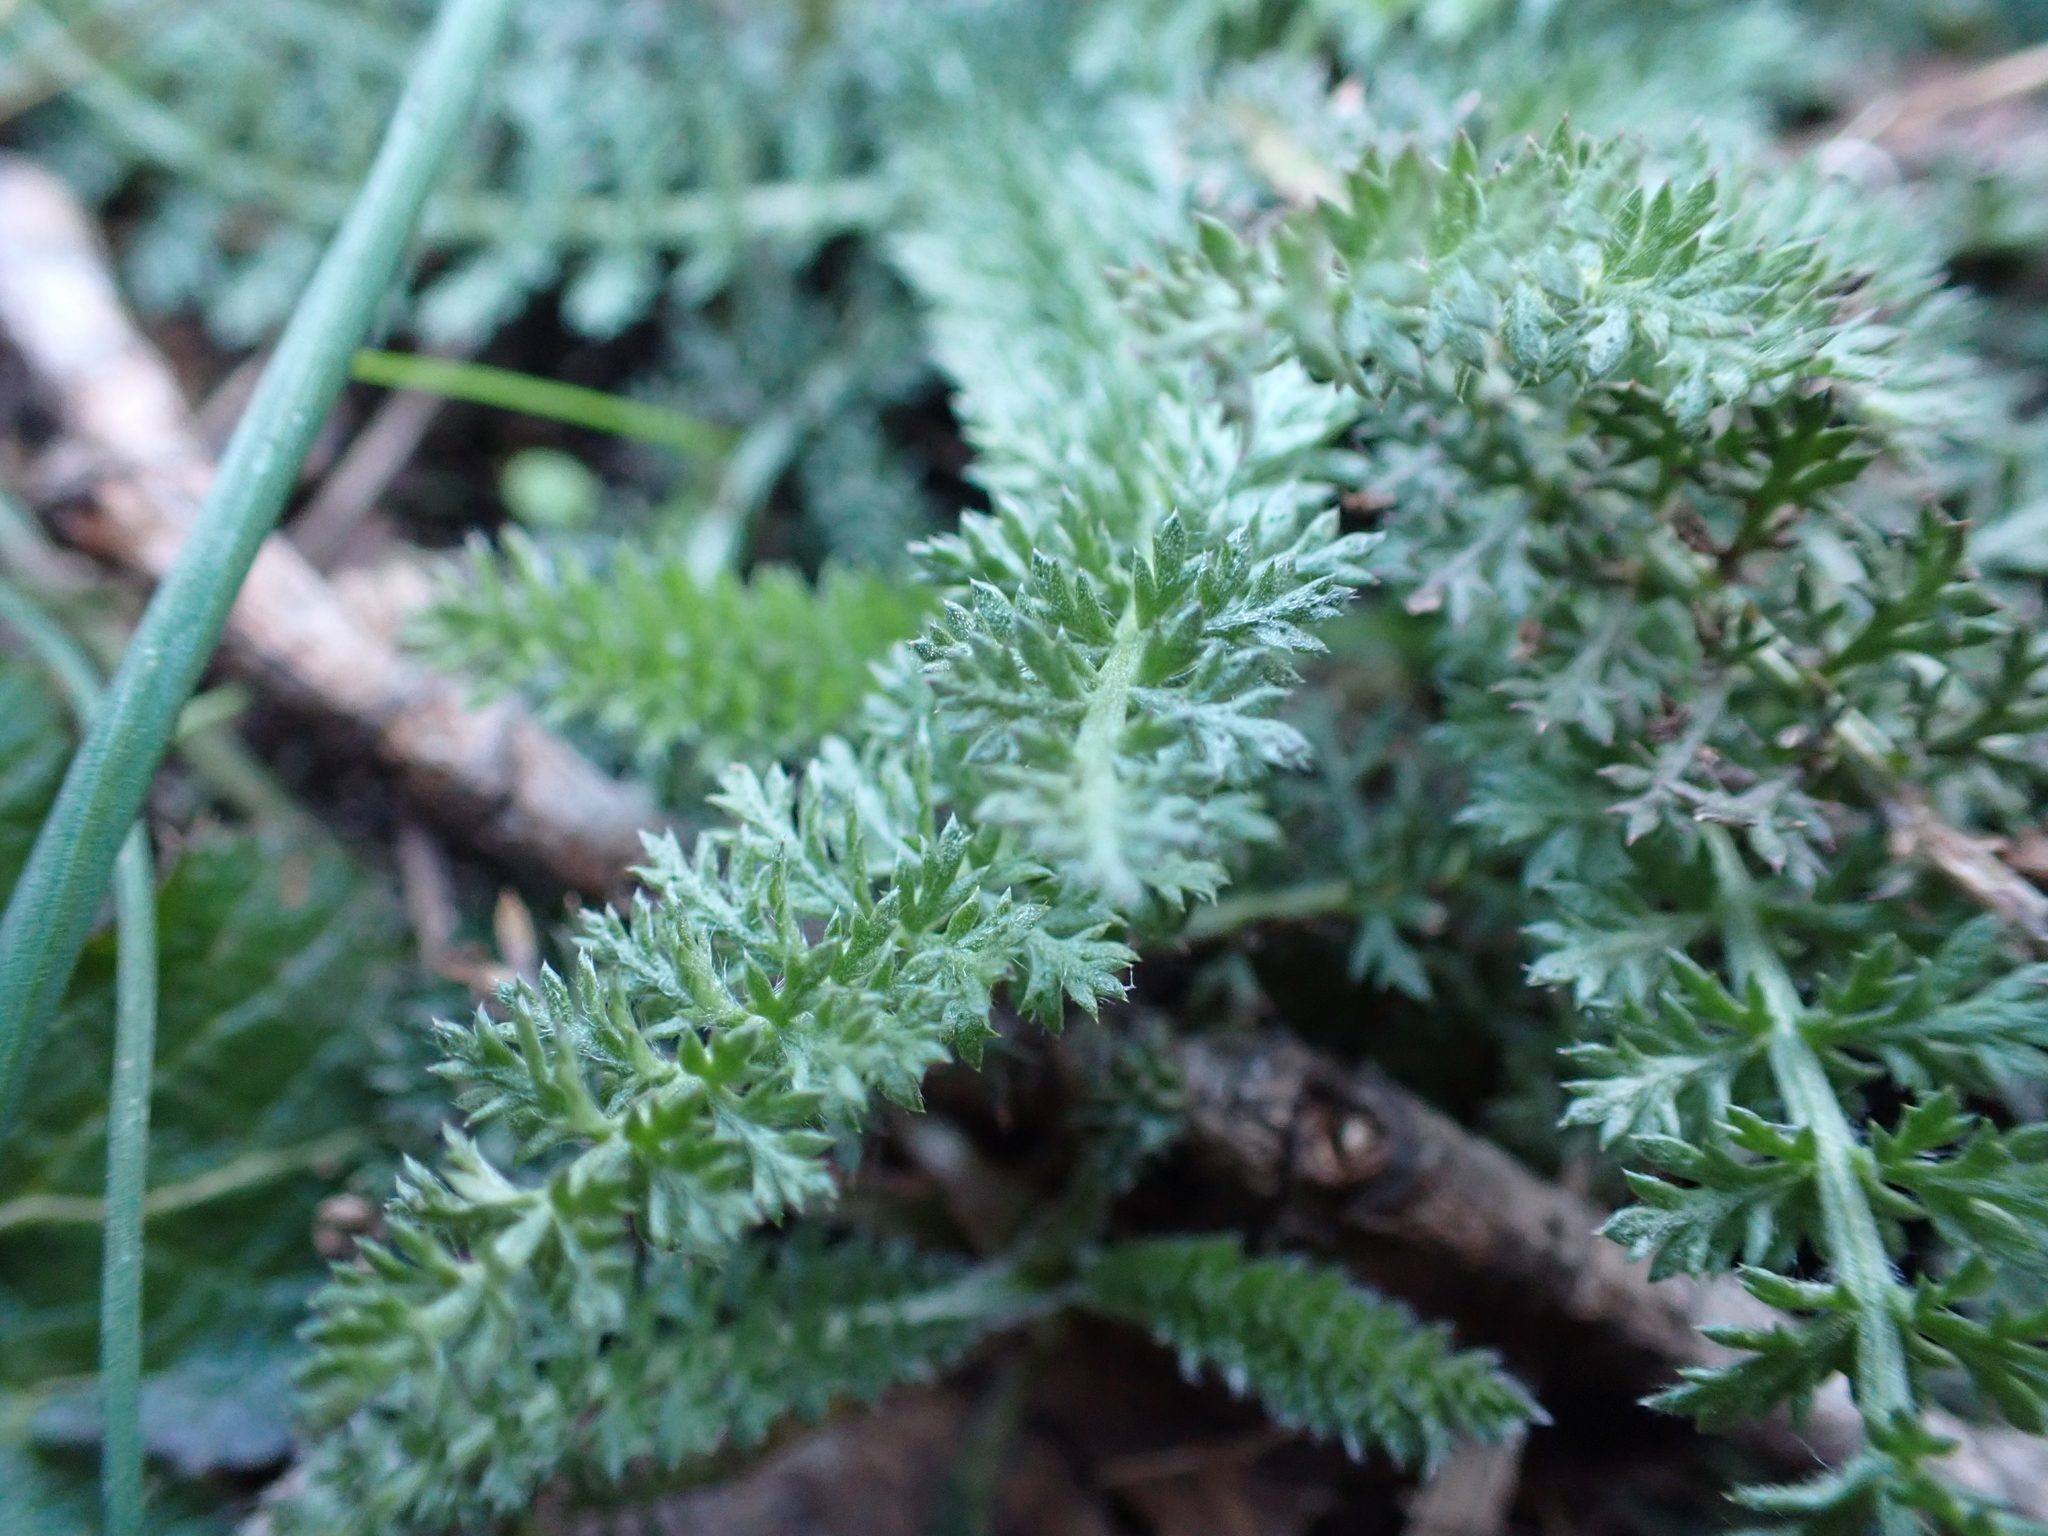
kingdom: Plantae
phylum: Tracheophyta
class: Magnoliopsida
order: Asterales
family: Asteraceae
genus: Achillea
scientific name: Achillea millefolium
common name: Yarrow
